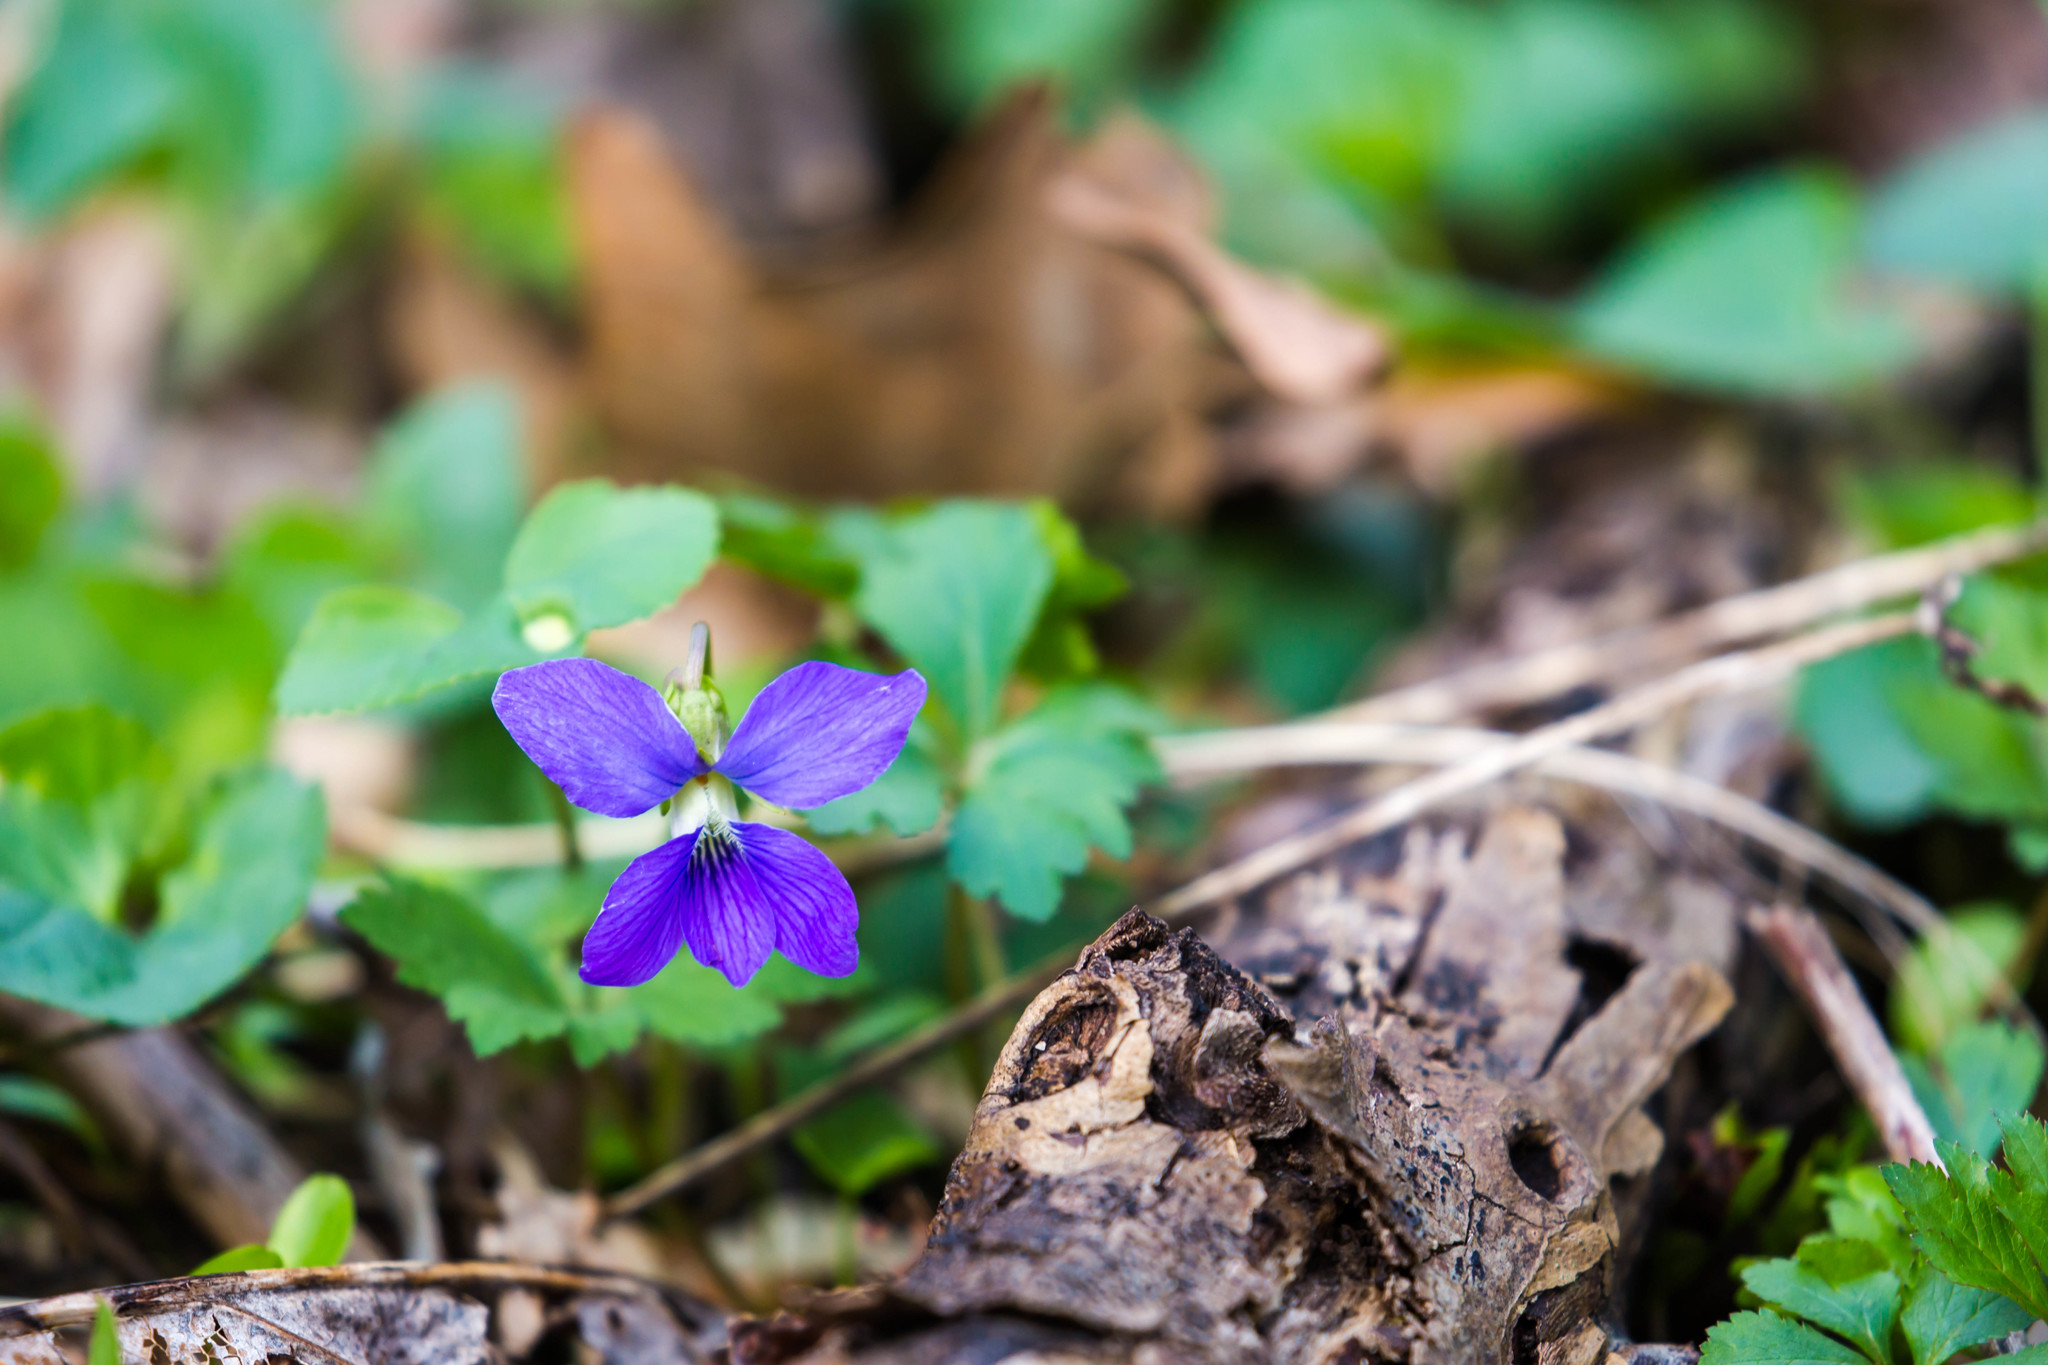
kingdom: Plantae
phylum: Tracheophyta
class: Magnoliopsida
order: Malpighiales
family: Violaceae
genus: Viola
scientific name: Viola sororia
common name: Dooryard violet
